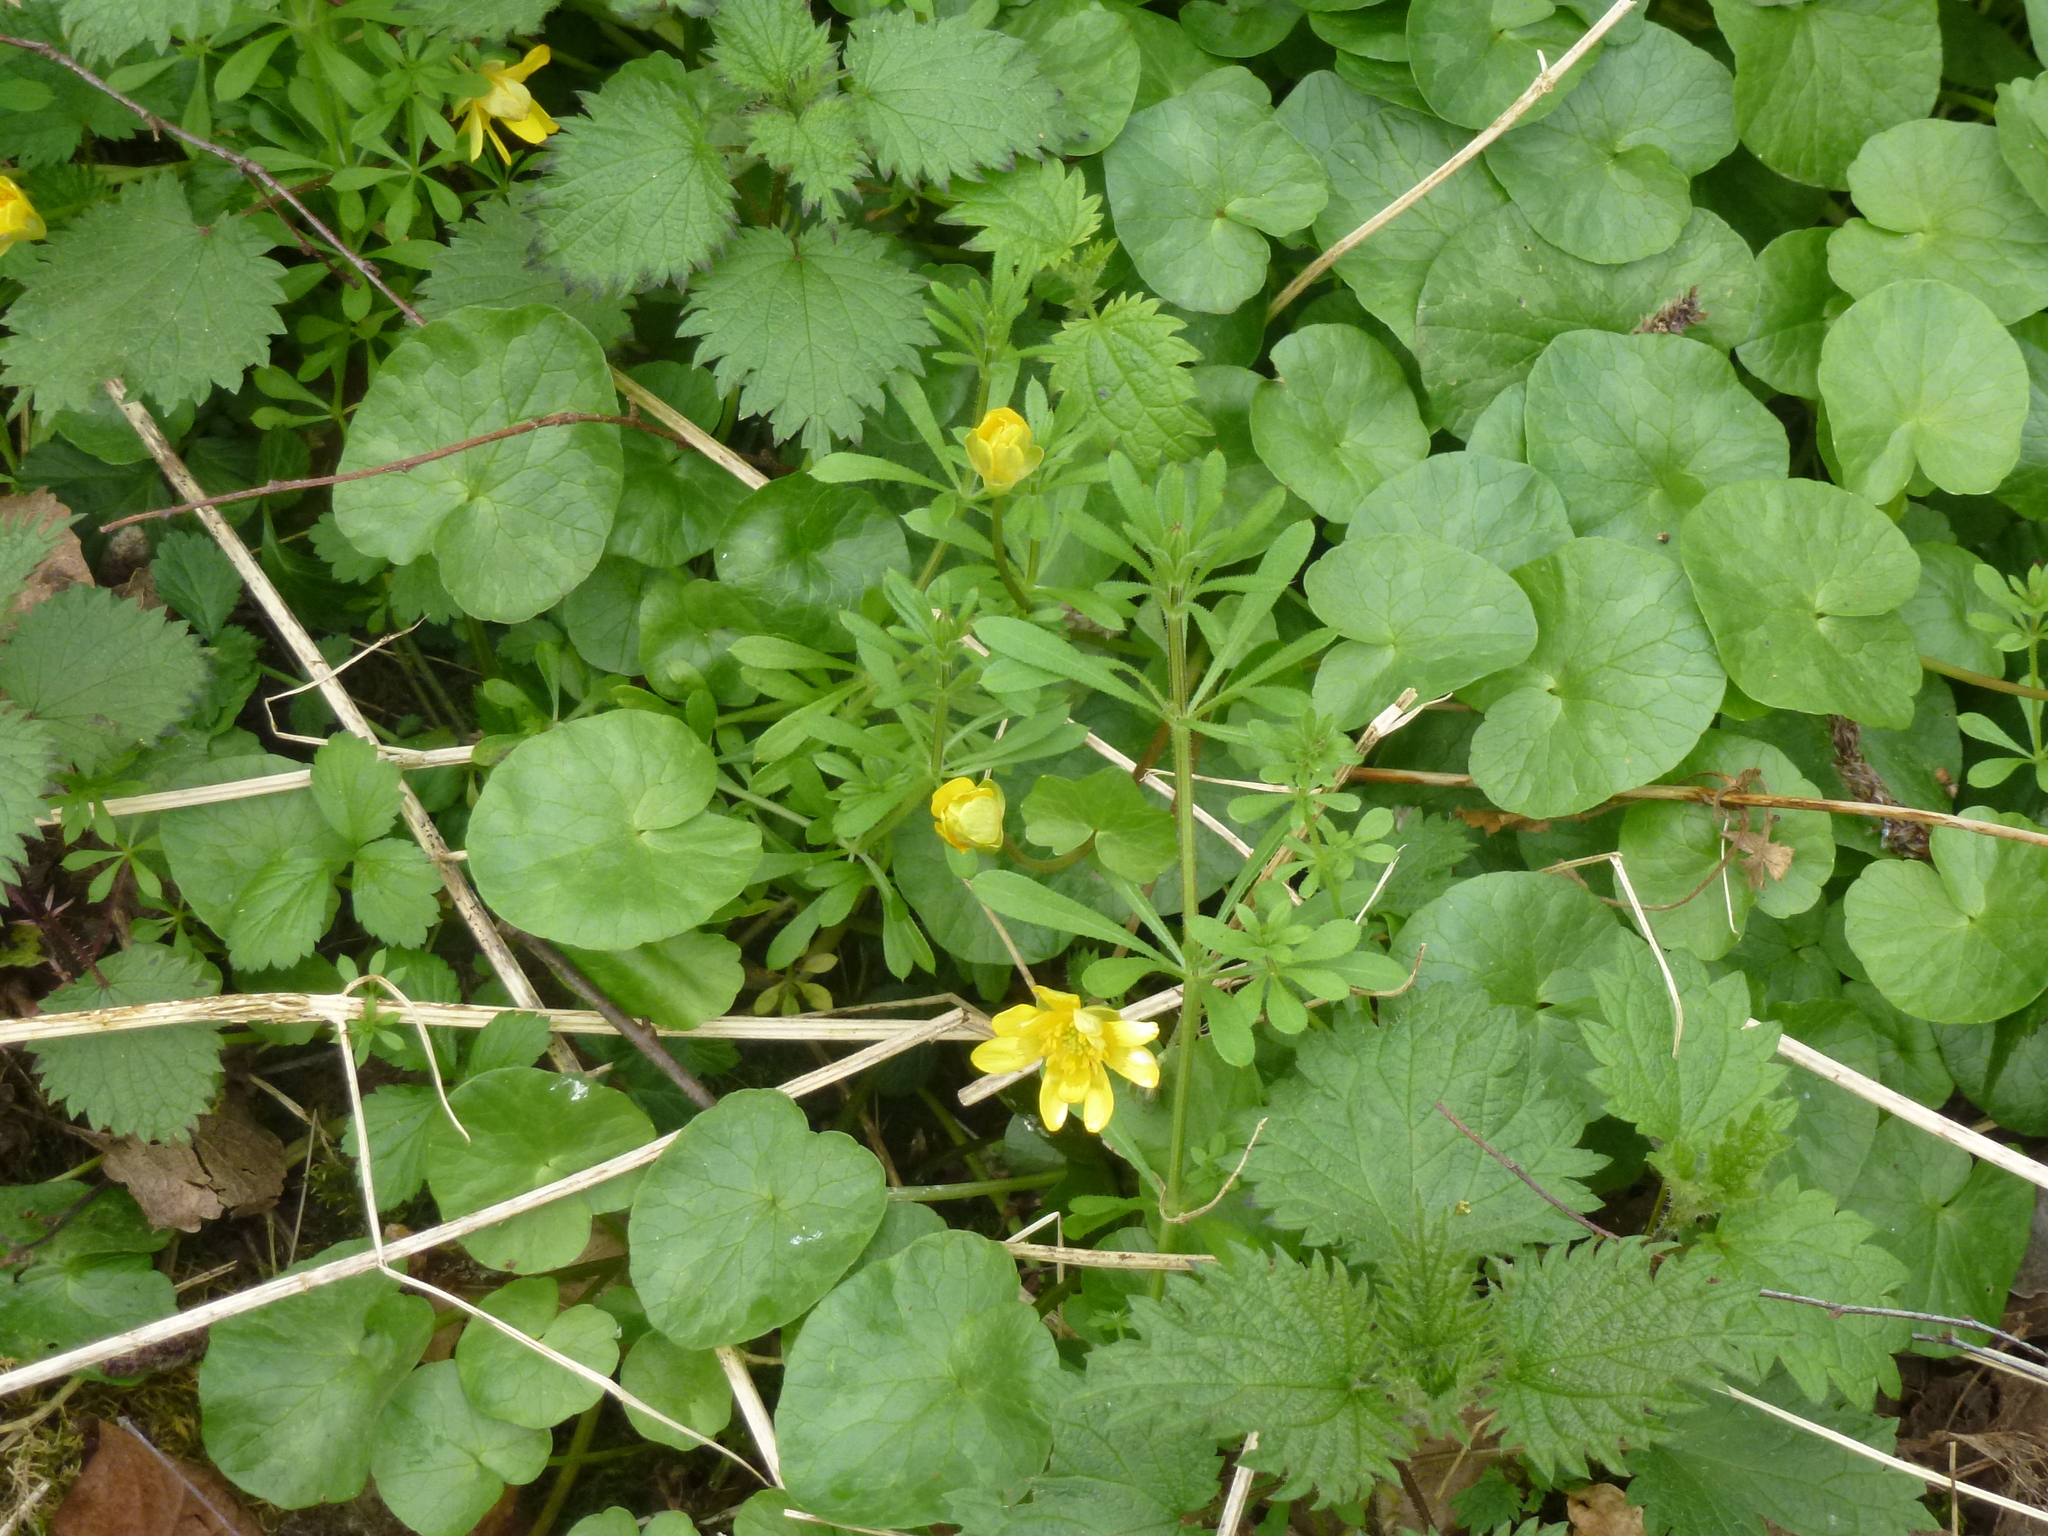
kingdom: Plantae
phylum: Tracheophyta
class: Magnoliopsida
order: Ranunculales
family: Ranunculaceae
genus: Ficaria
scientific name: Ficaria verna
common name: Lesser celandine
